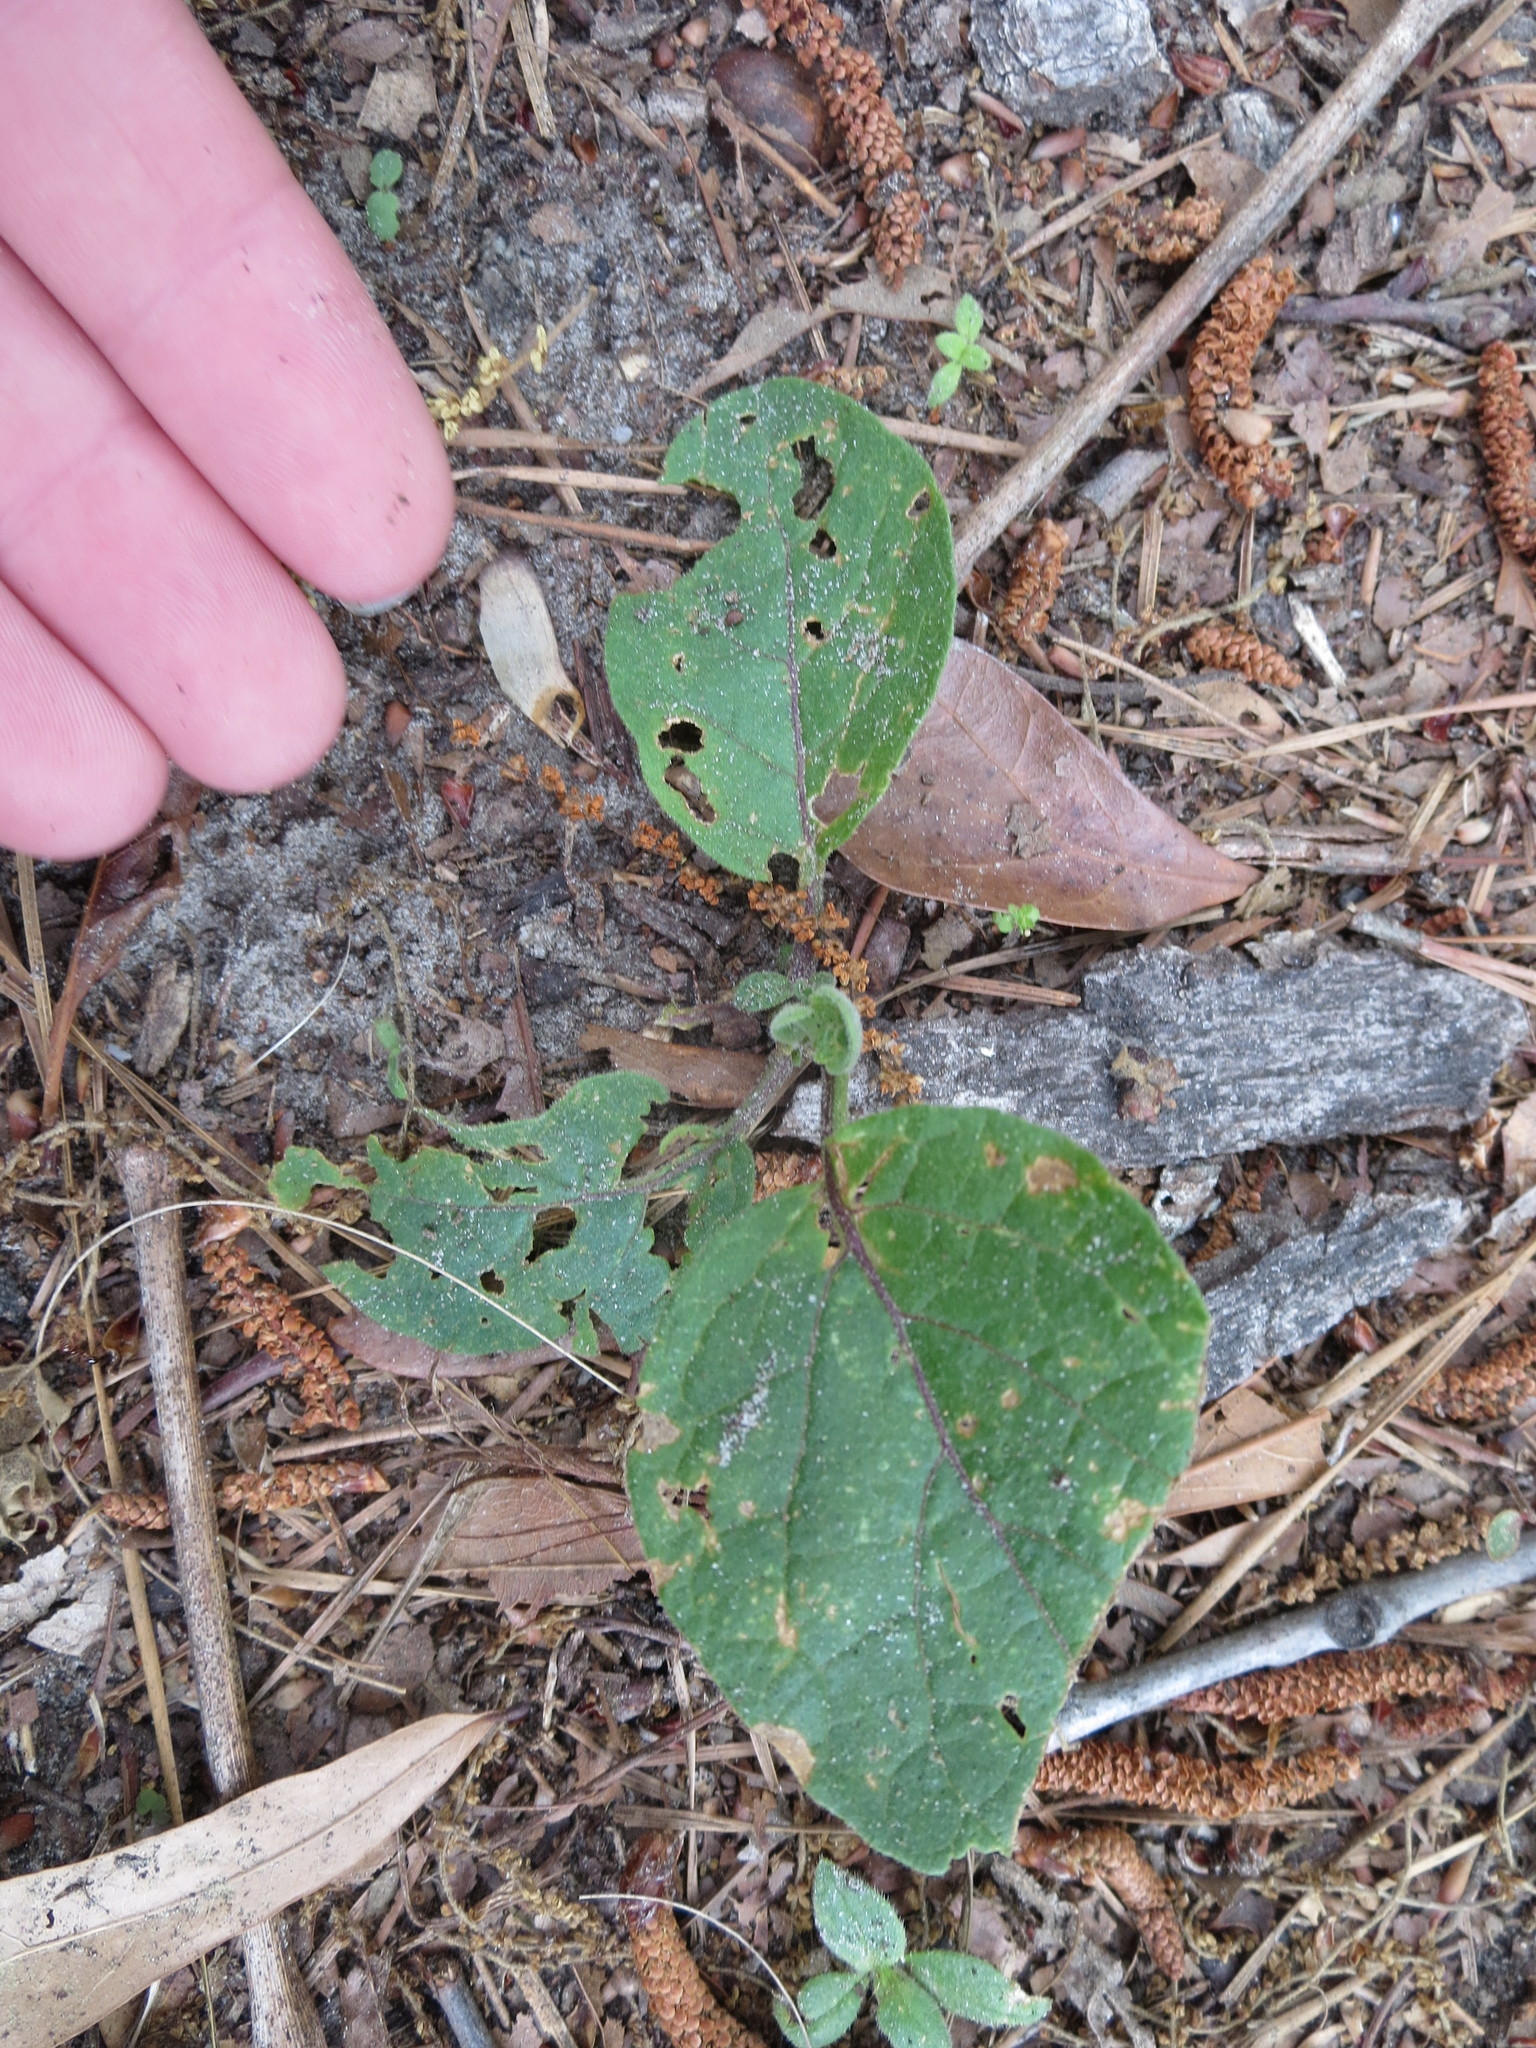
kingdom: Plantae
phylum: Tracheophyta
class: Magnoliopsida
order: Solanales
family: Solanaceae
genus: Physalis
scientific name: Physalis walteri
